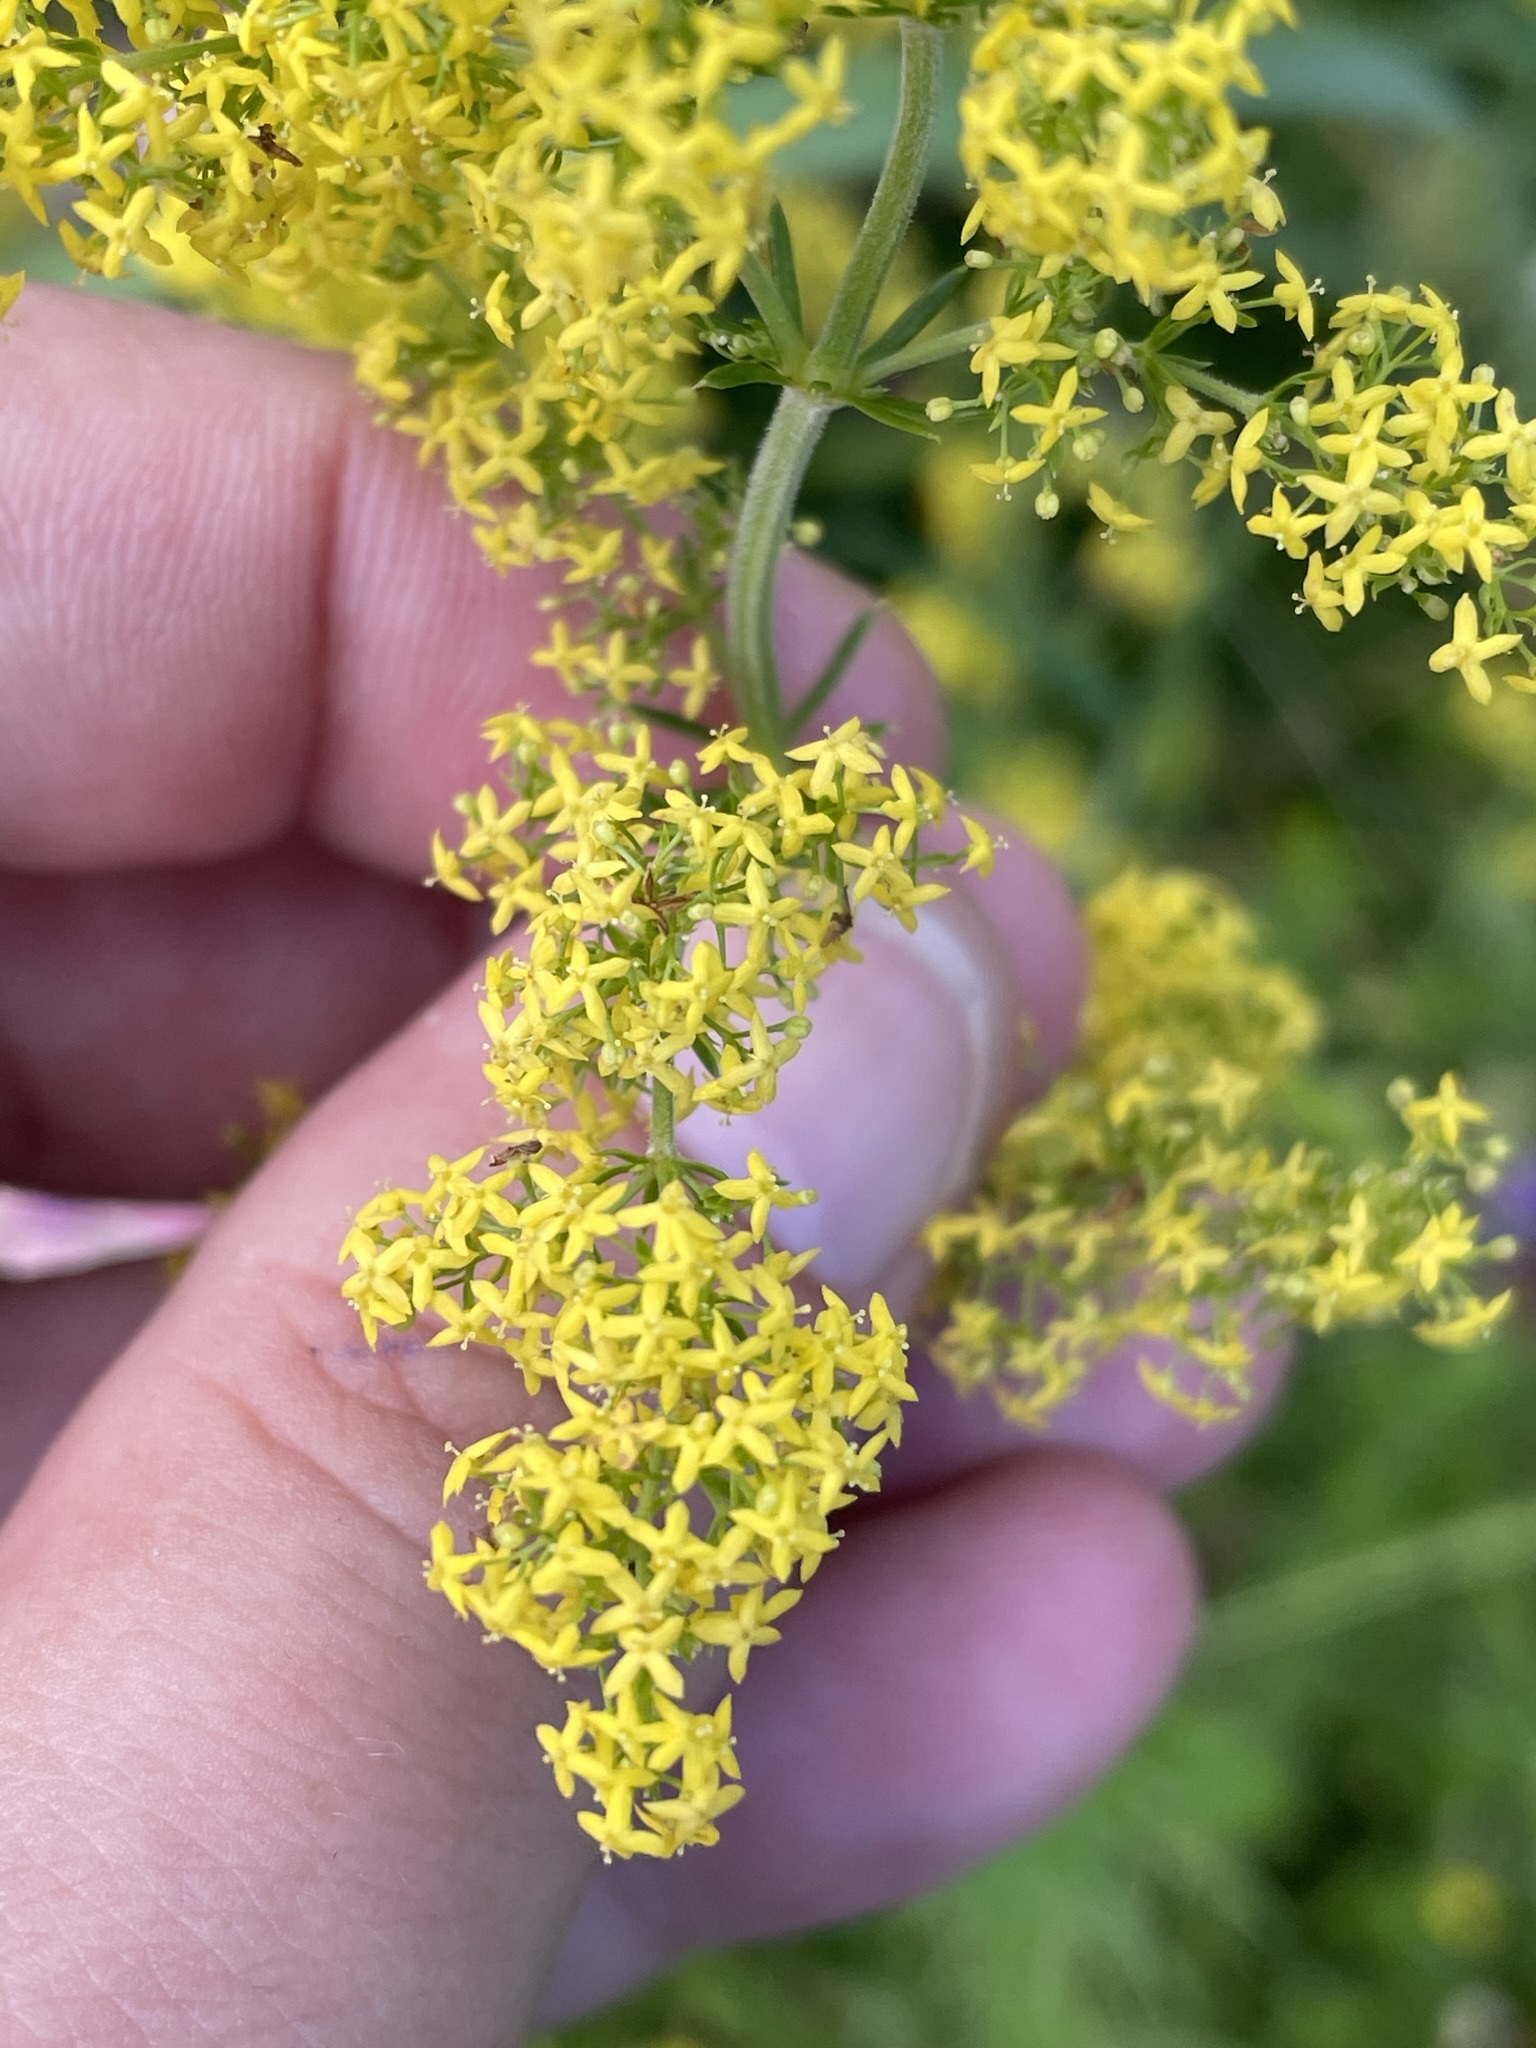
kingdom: Plantae
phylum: Tracheophyta
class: Magnoliopsida
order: Gentianales
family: Rubiaceae
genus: Galium
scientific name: Galium verum
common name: Lady's bedstraw
